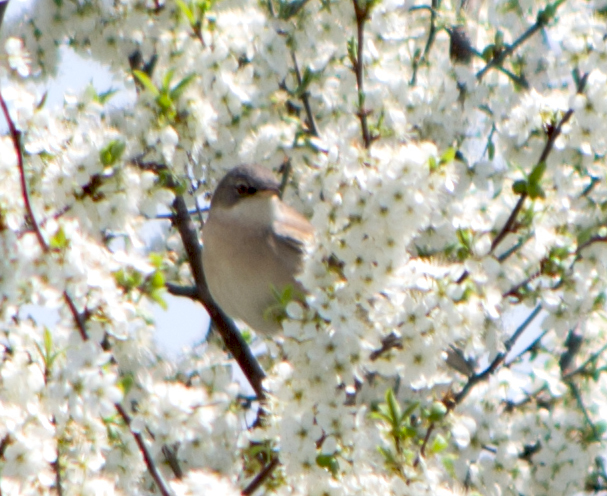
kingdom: Animalia
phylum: Chordata
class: Aves
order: Passeriformes
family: Sylviidae
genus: Sylvia
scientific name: Sylvia communis
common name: Common whitethroat
